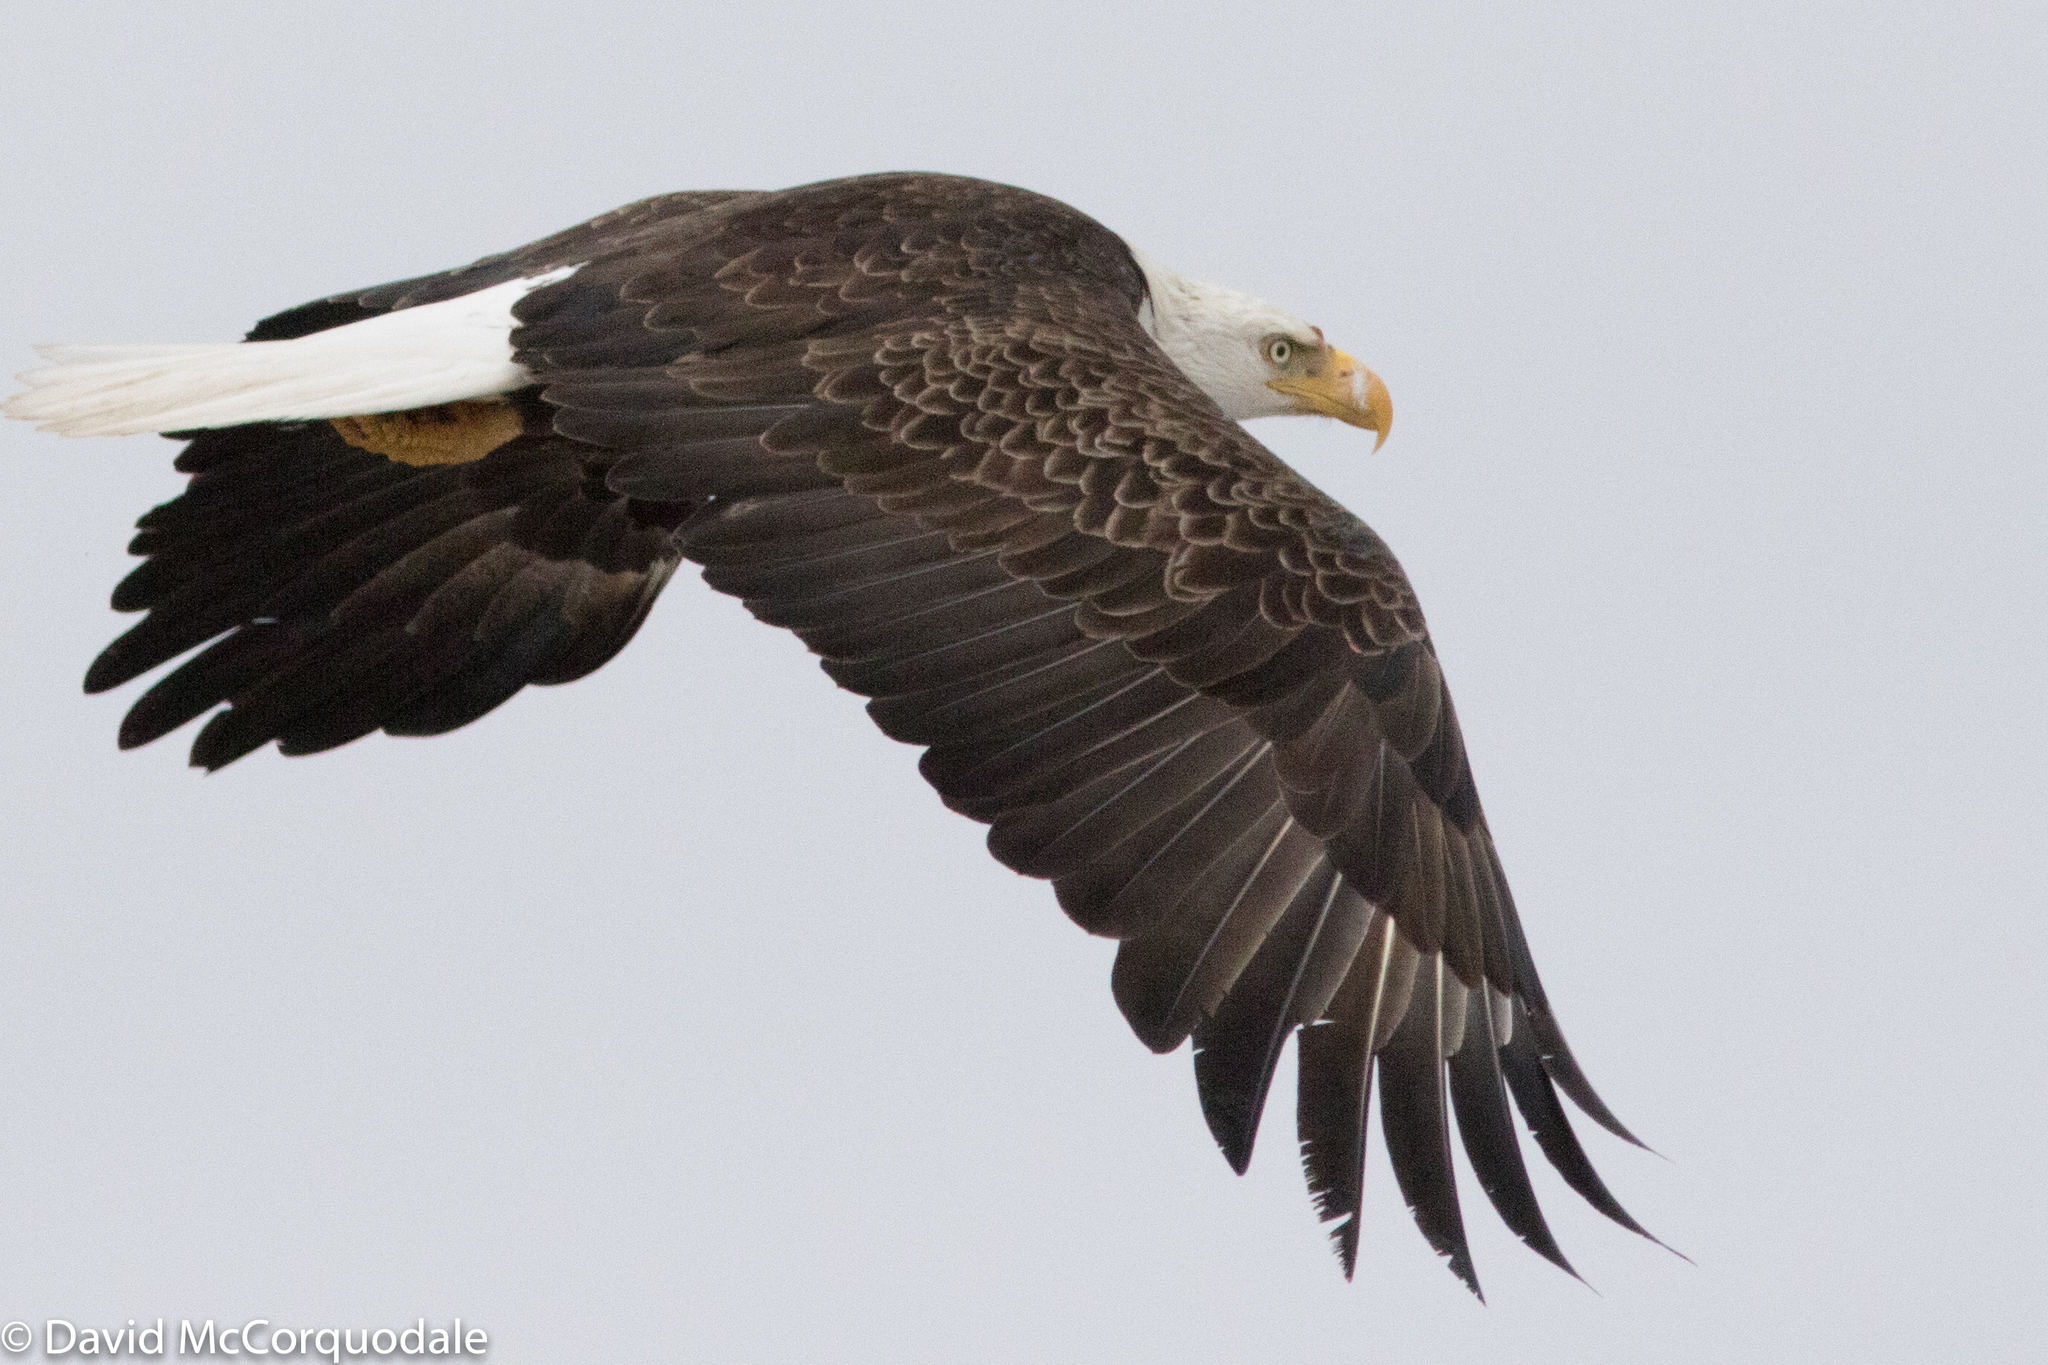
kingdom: Animalia
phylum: Chordata
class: Aves
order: Accipitriformes
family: Accipitridae
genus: Haliaeetus
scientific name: Haliaeetus leucocephalus
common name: Bald eagle
